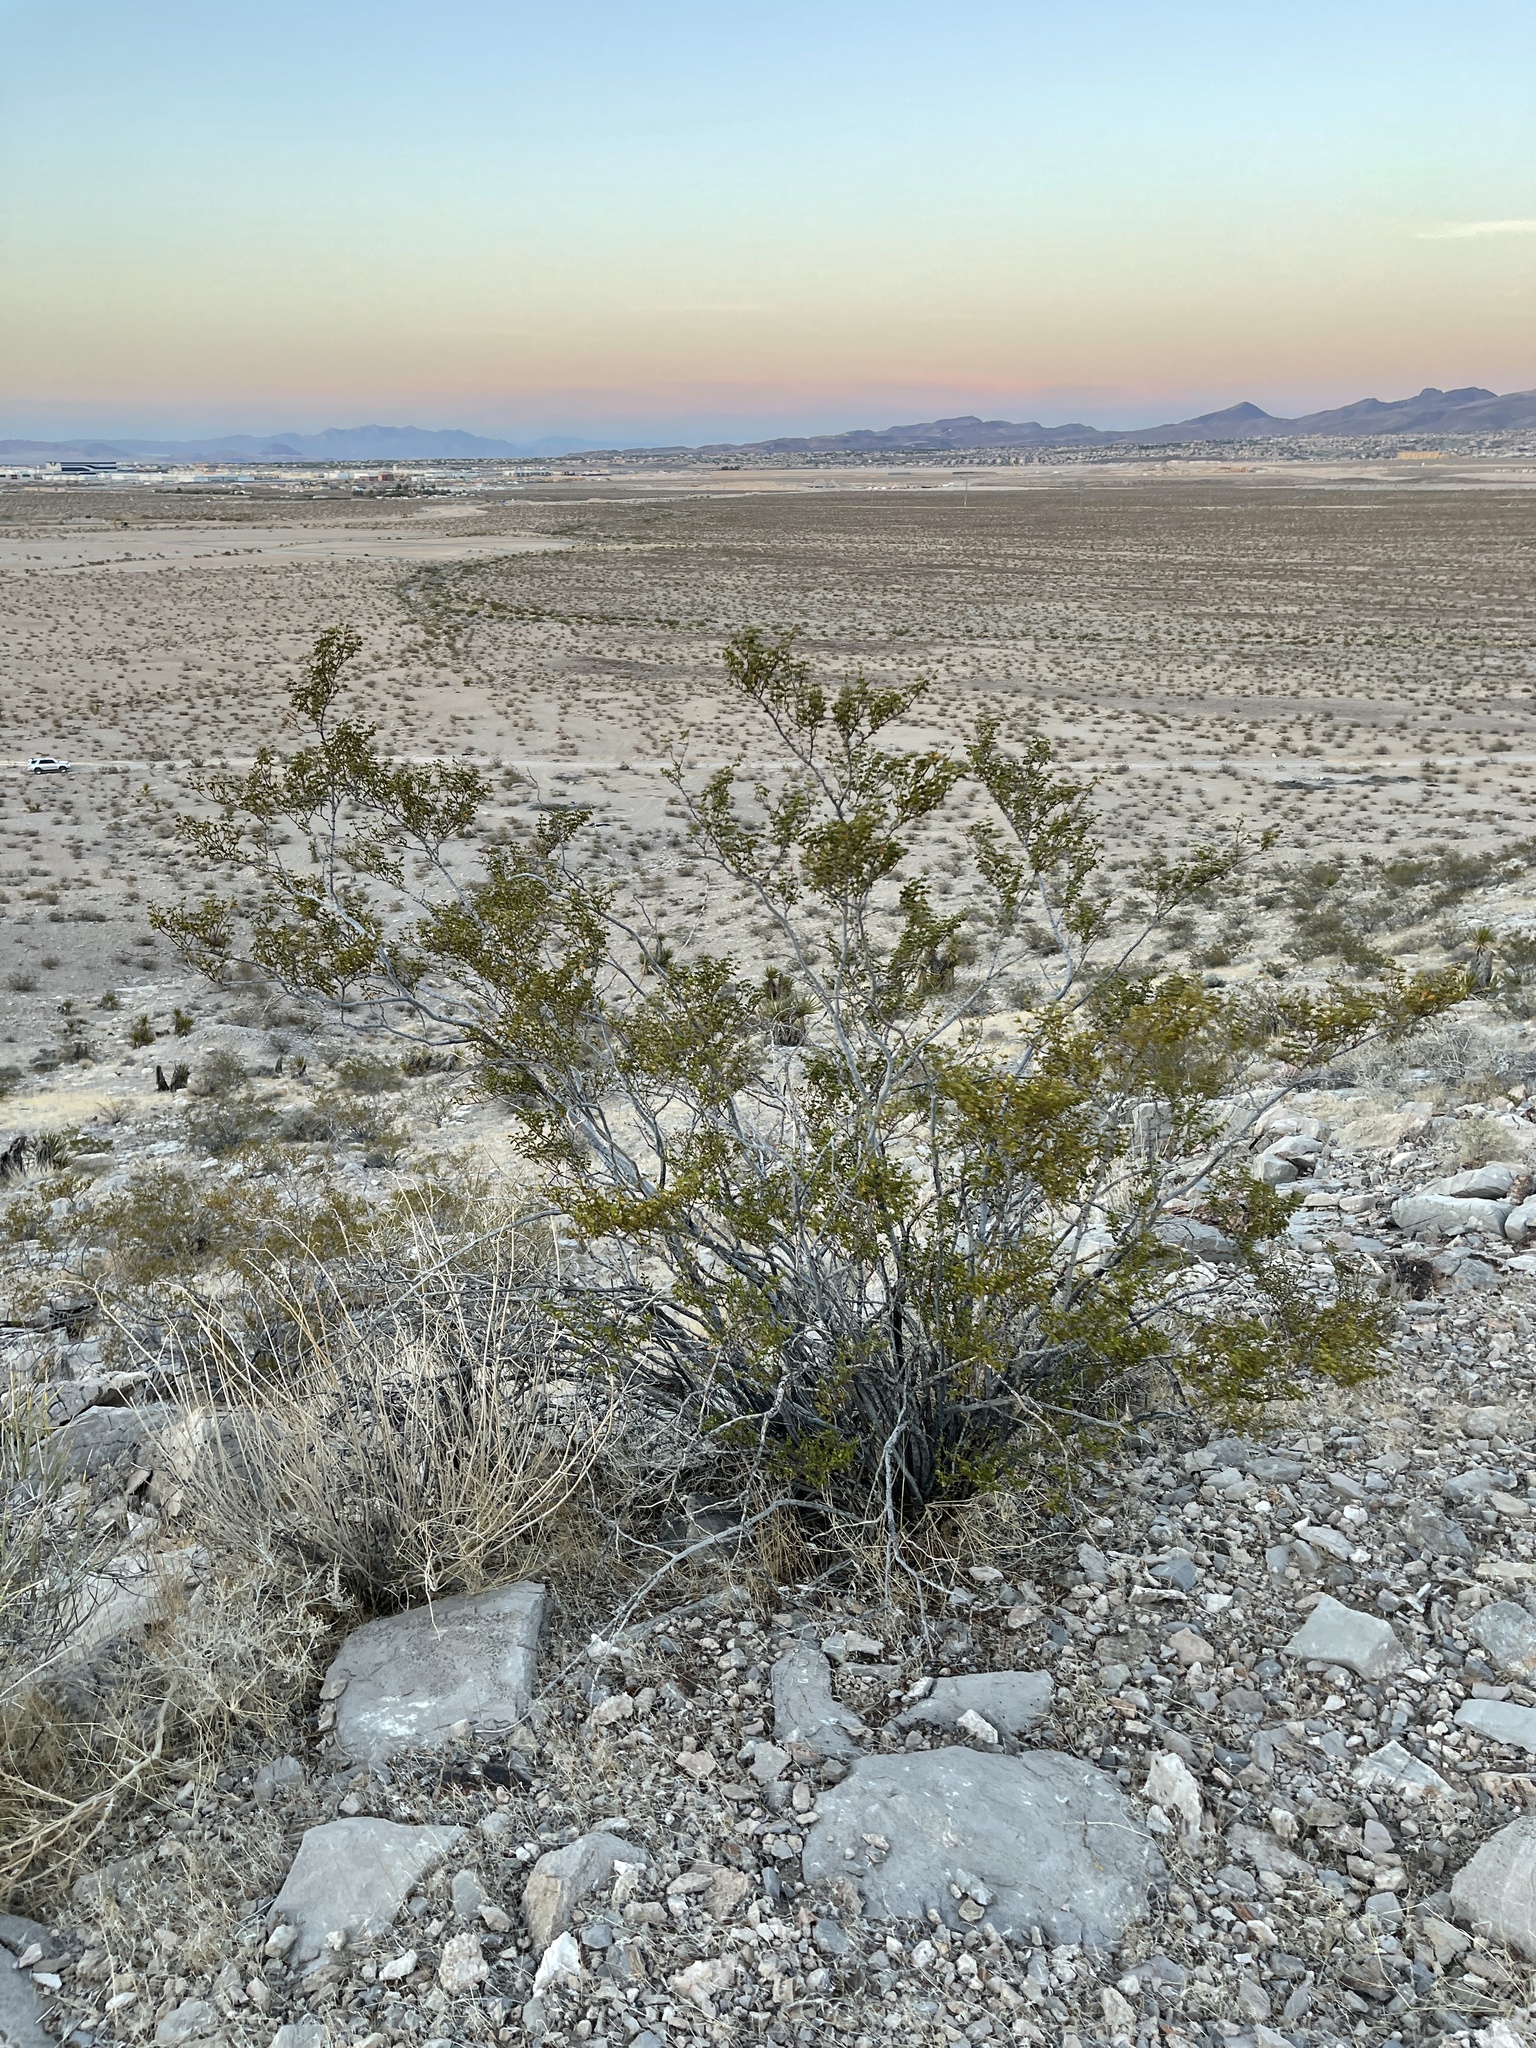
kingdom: Plantae
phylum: Tracheophyta
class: Magnoliopsida
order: Zygophyllales
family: Zygophyllaceae
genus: Larrea
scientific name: Larrea tridentata
